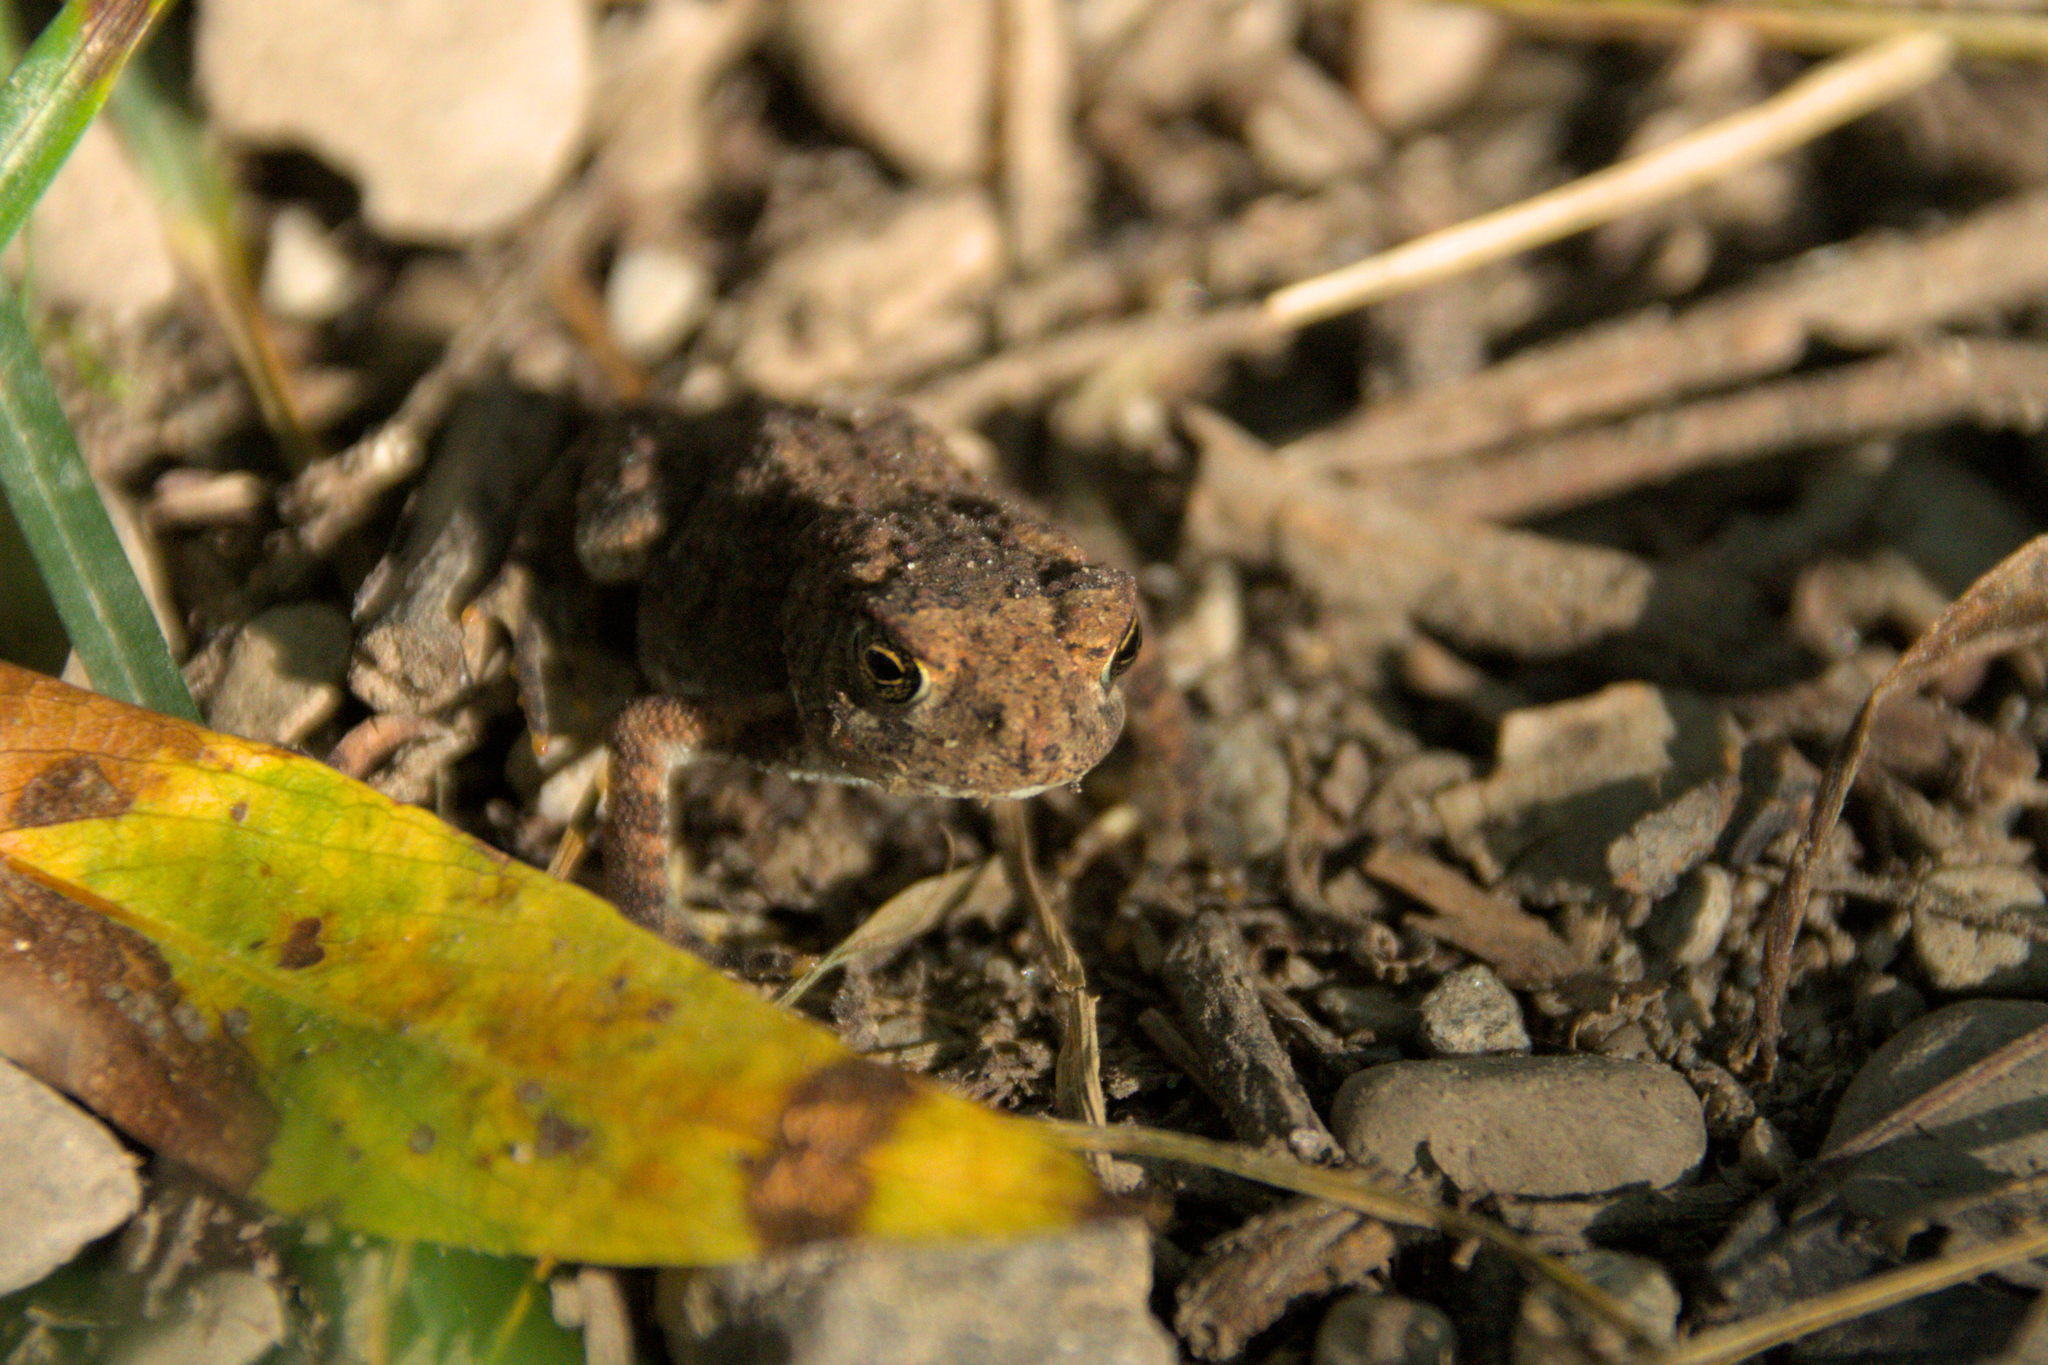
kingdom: Animalia
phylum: Chordata
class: Amphibia
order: Anura
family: Bufonidae
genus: Anaxyrus
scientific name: Anaxyrus americanus
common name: American toad
